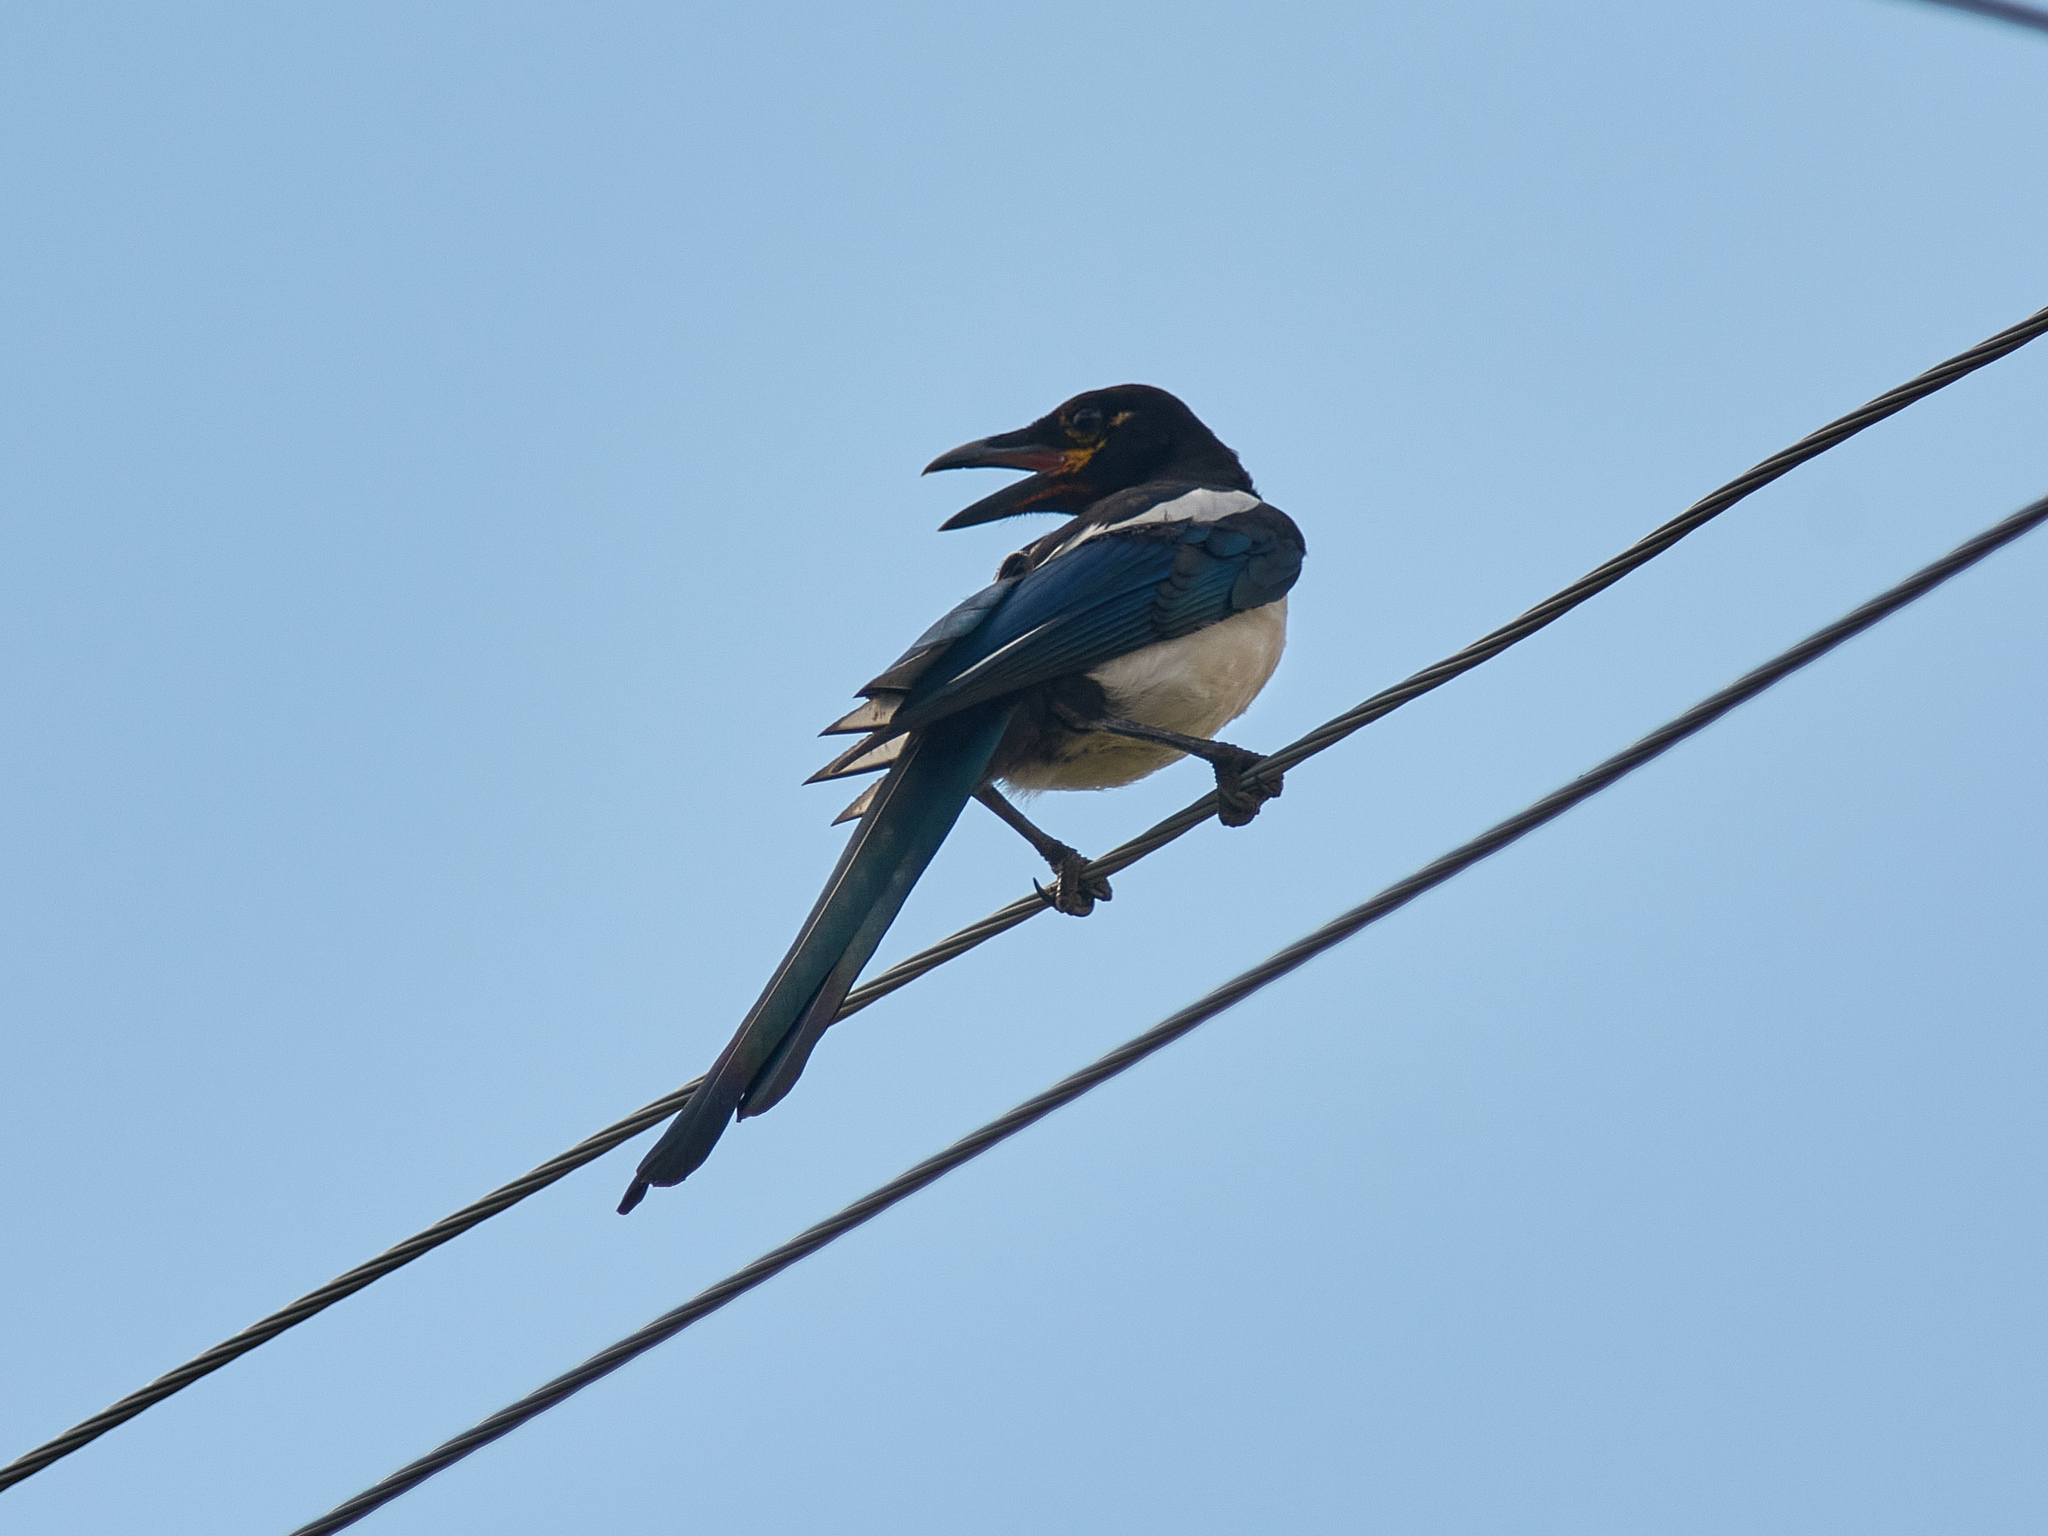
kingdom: Animalia
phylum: Chordata
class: Aves
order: Passeriformes
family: Corvidae
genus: Pica
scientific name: Pica pica
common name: Eurasian magpie
